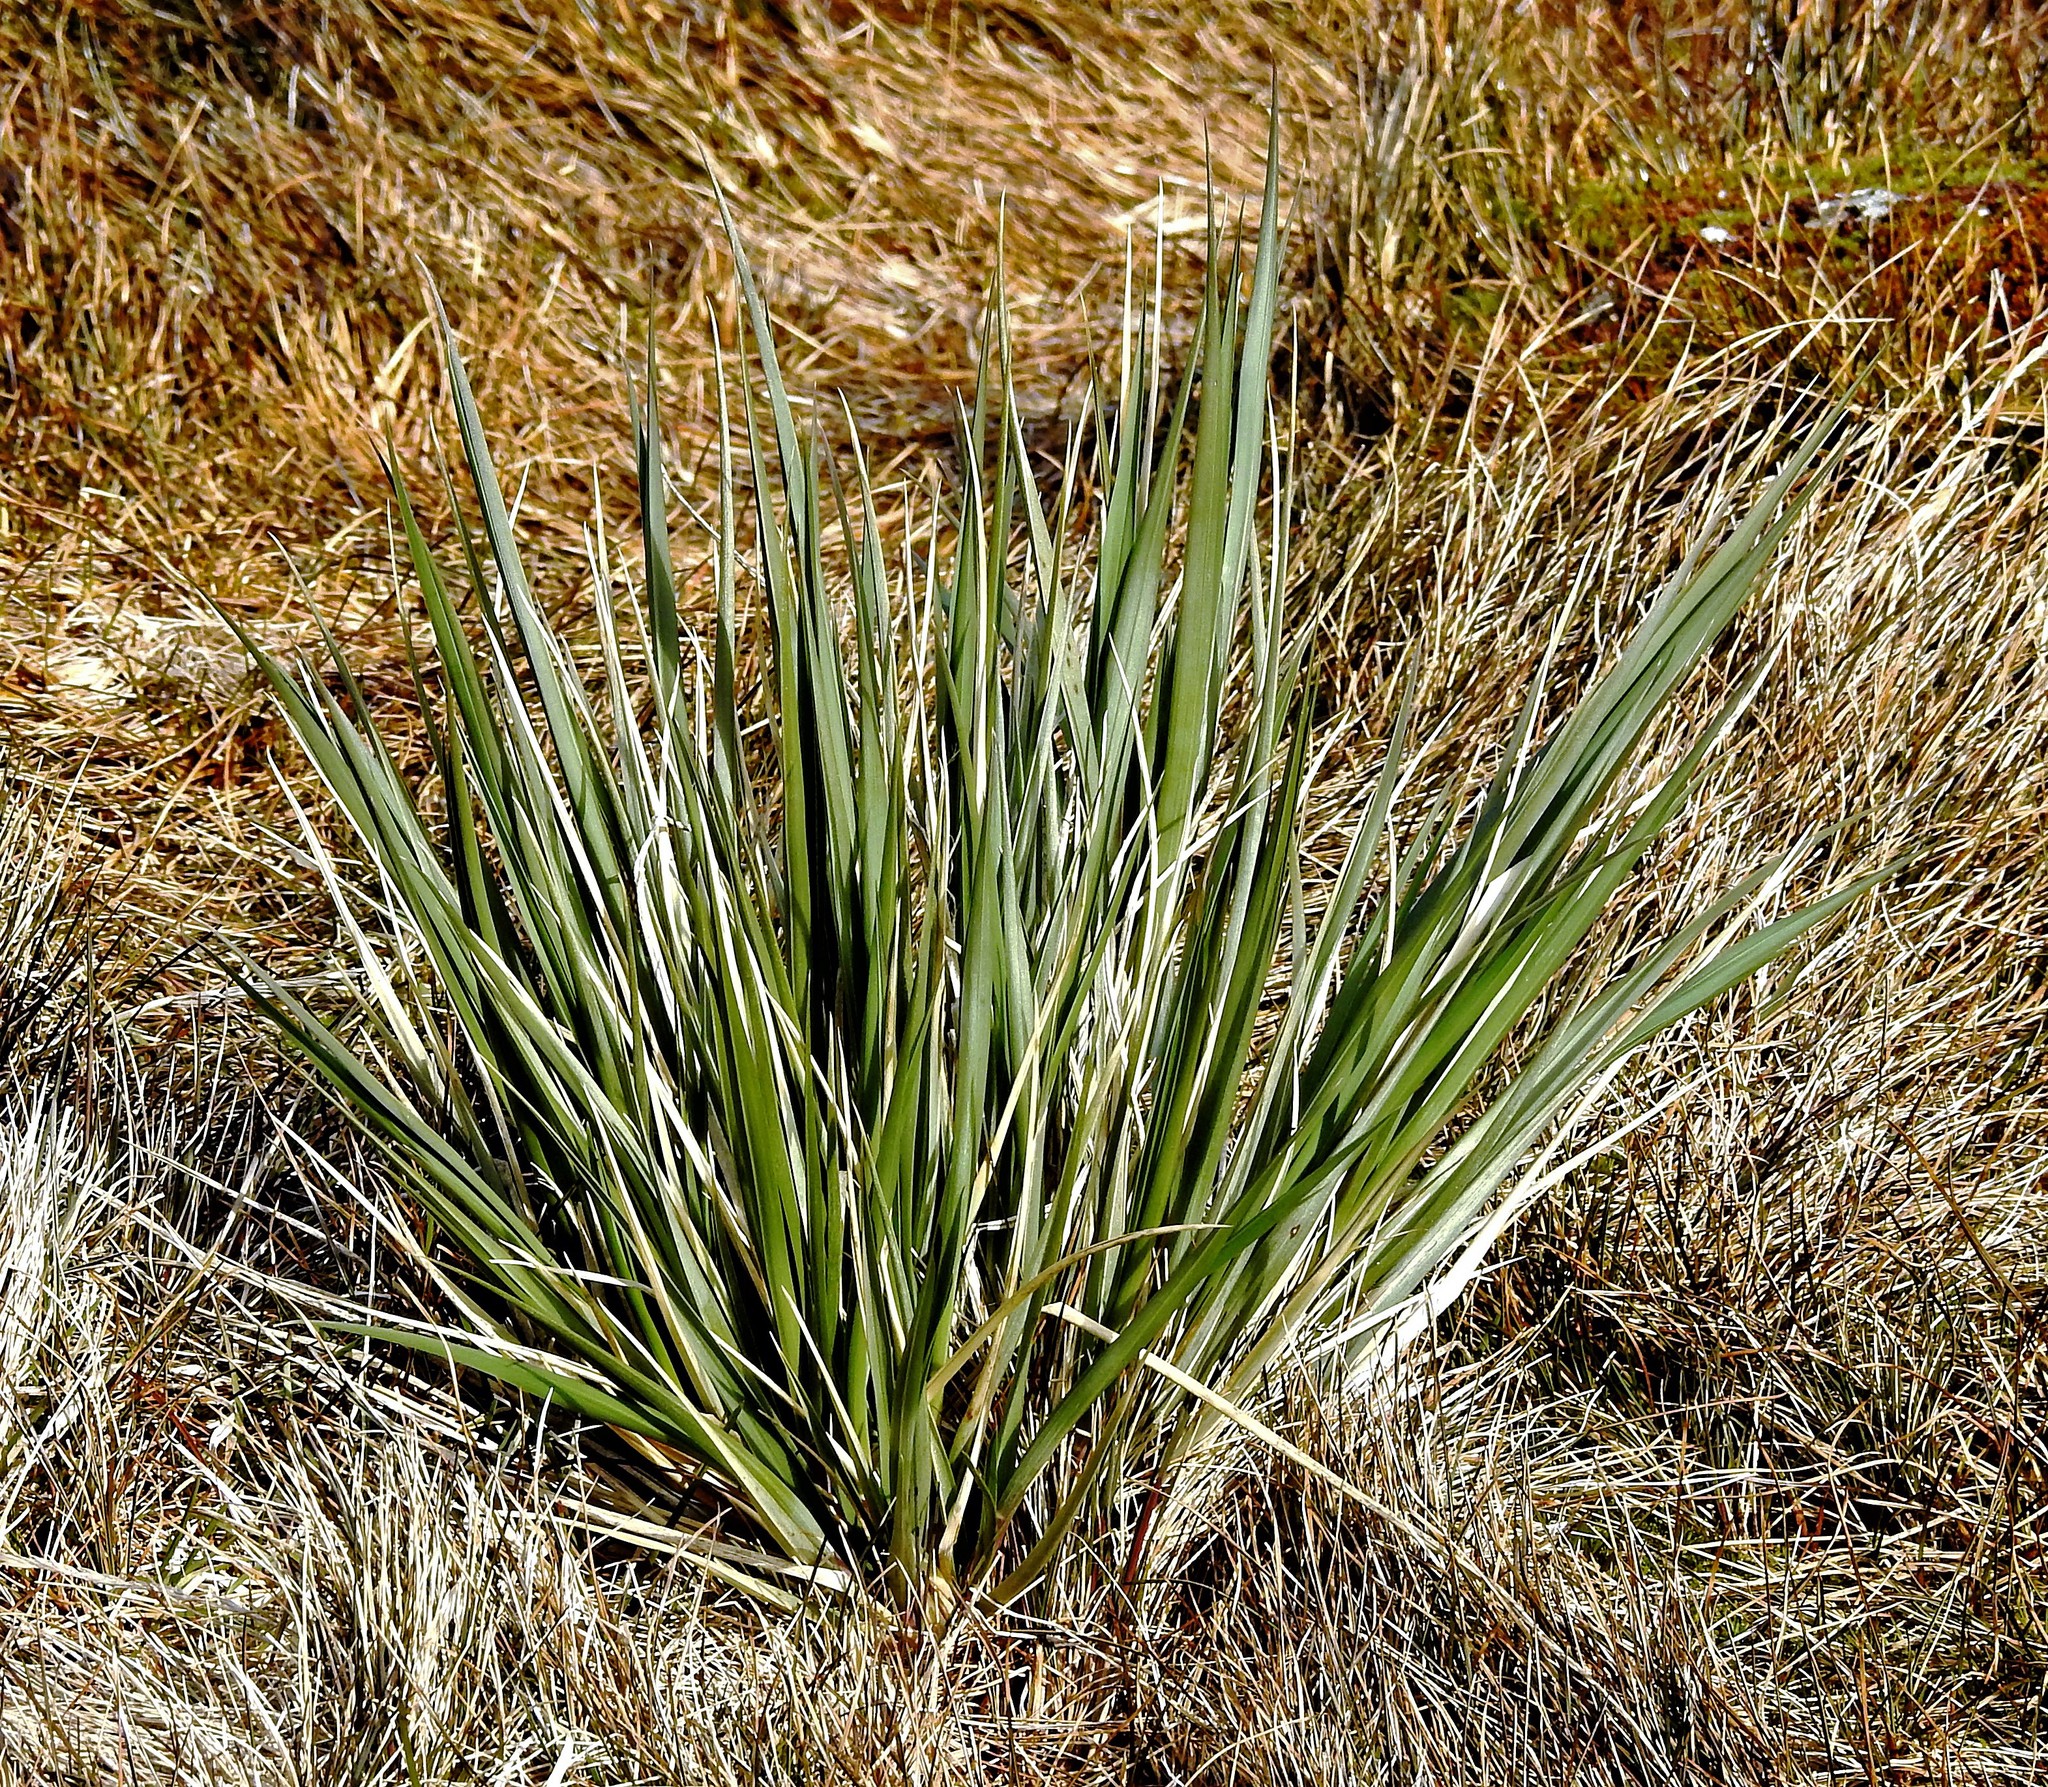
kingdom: Plantae
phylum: Tracheophyta
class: Liliopsida
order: Poales
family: Poaceae
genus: Poa
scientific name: Poa flabellata
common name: Tussac-grass
